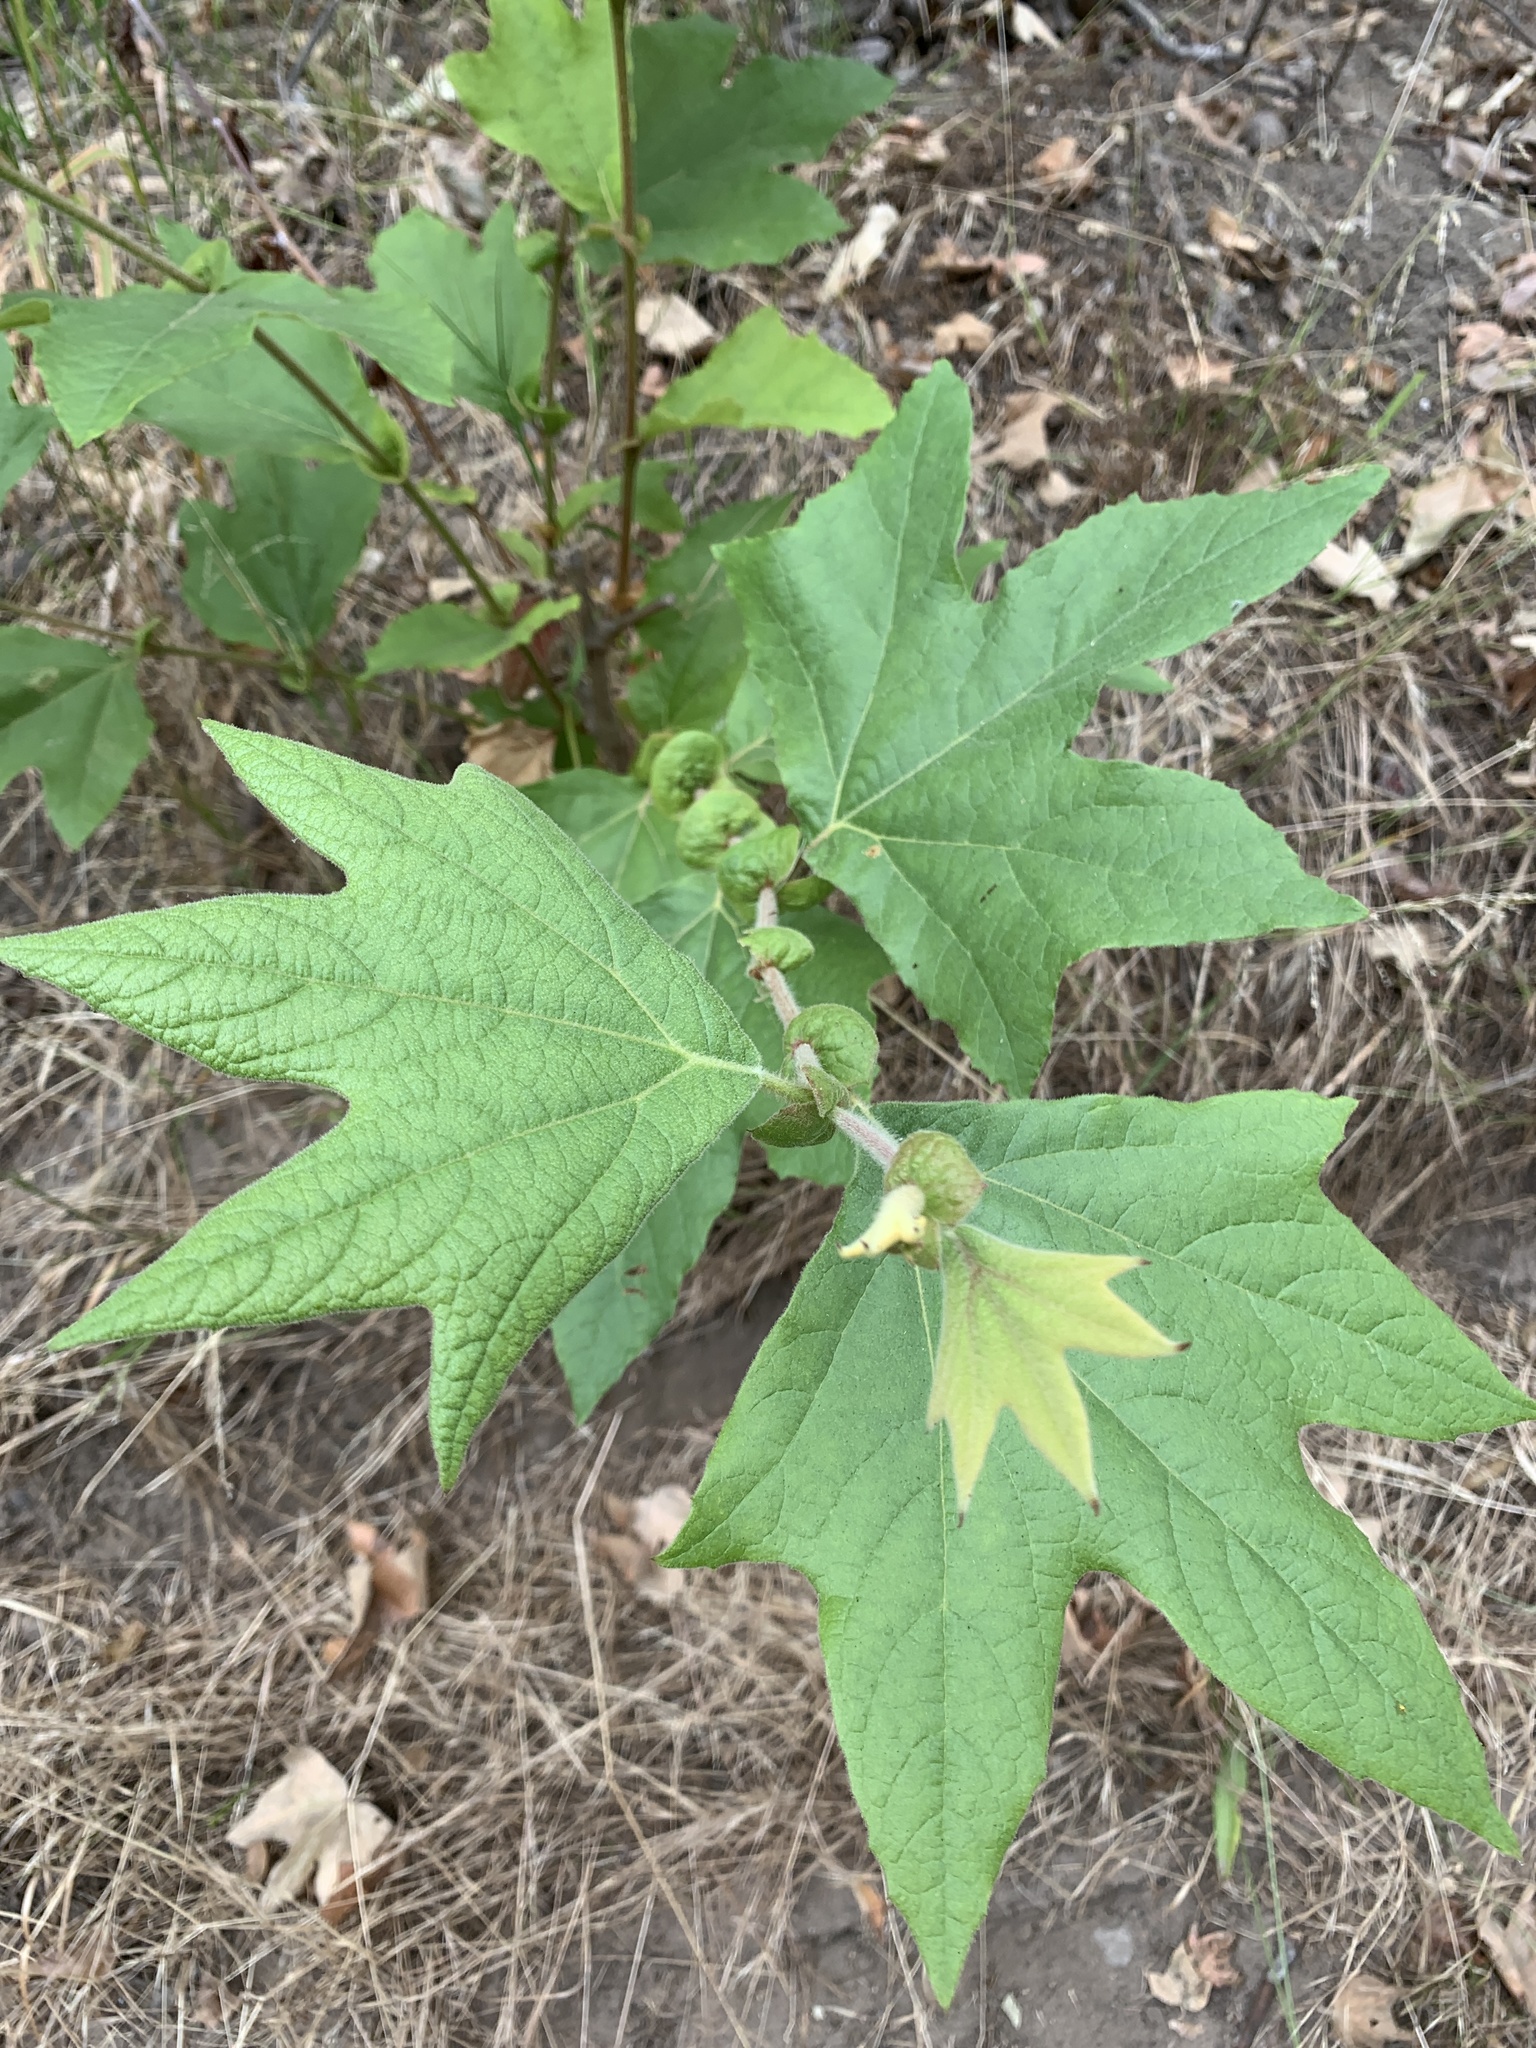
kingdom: Plantae
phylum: Tracheophyta
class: Magnoliopsida
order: Proteales
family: Platanaceae
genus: Platanus
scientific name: Platanus racemosa
